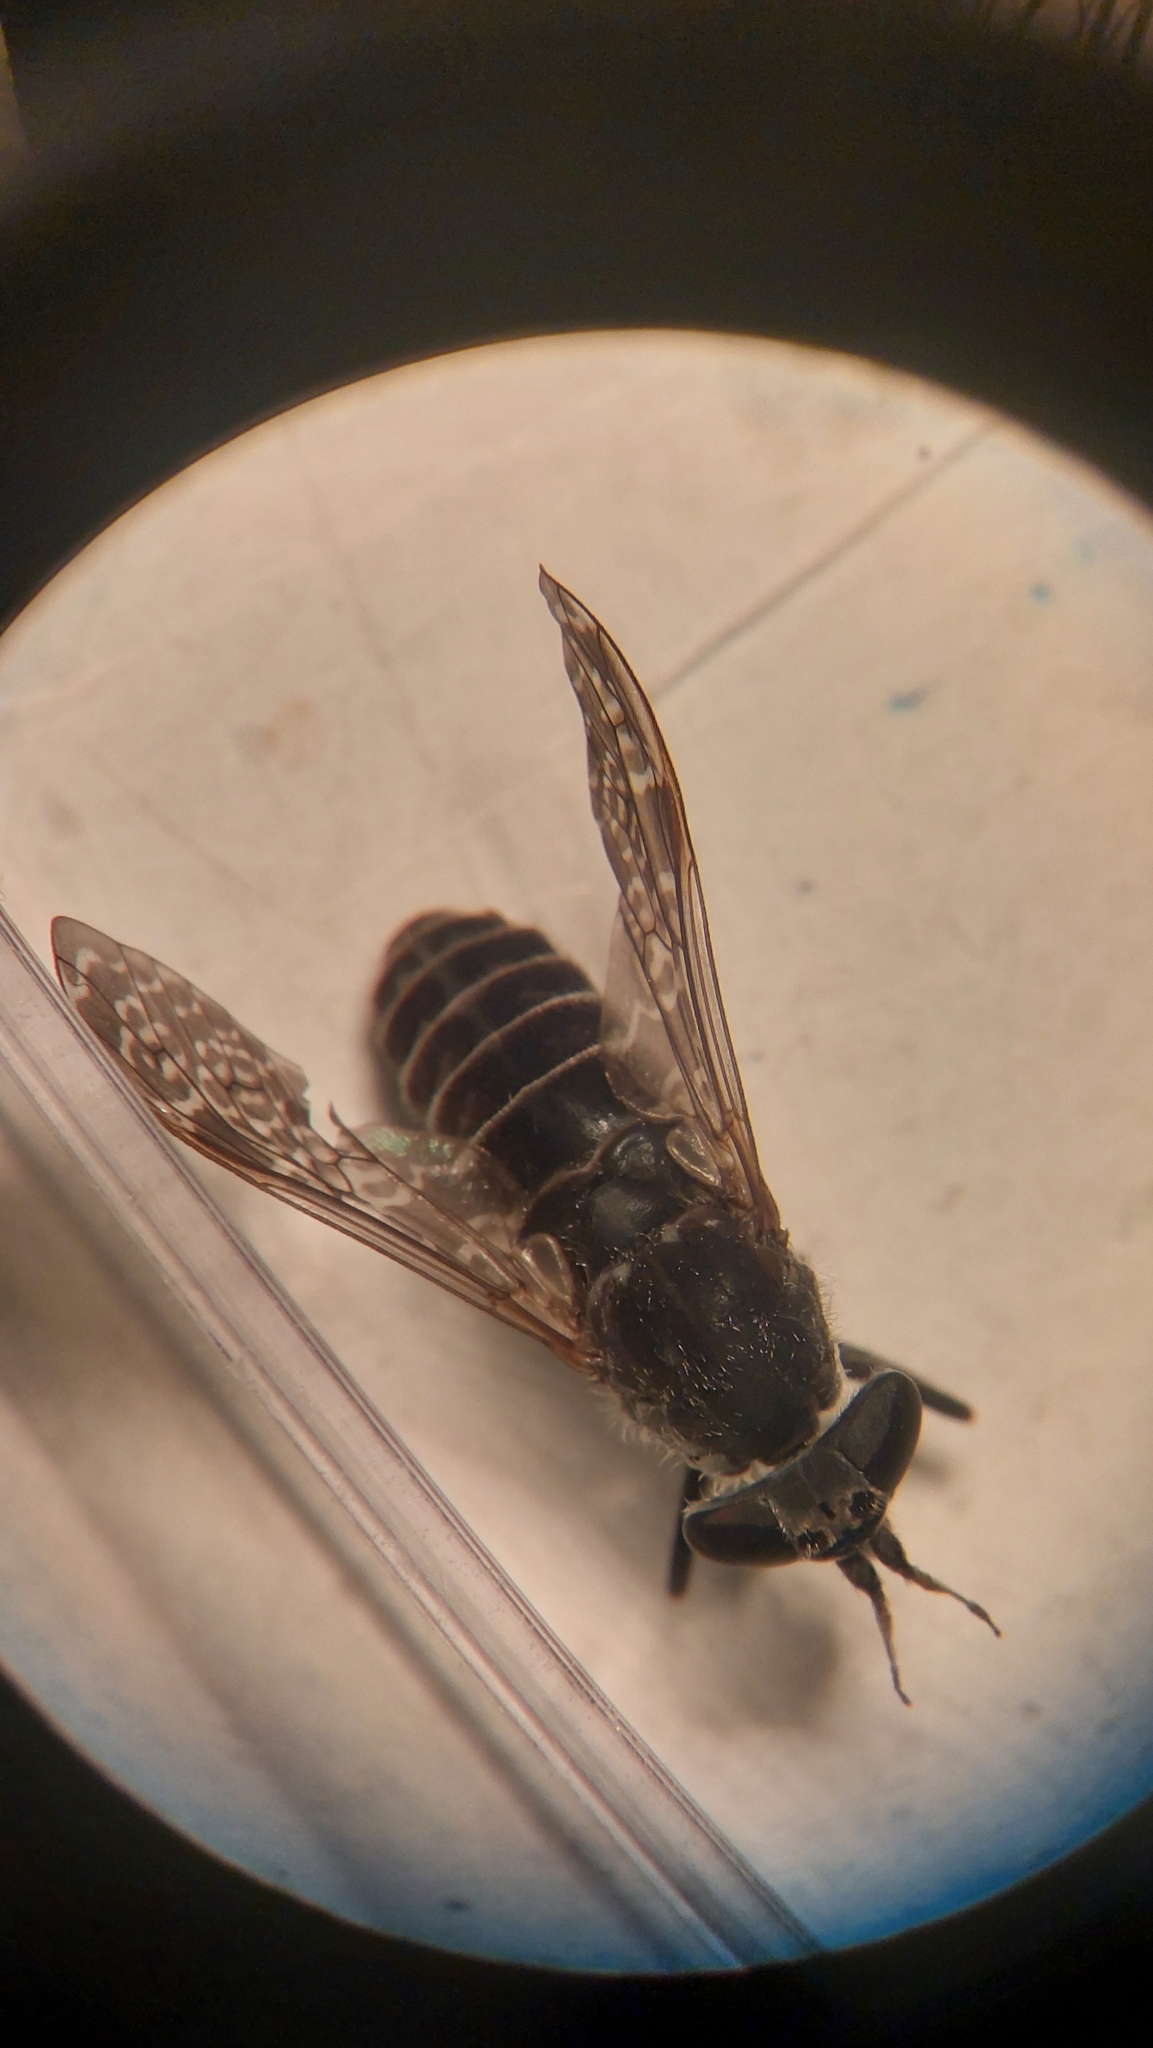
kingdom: Animalia
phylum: Arthropoda
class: Insecta
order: Diptera
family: Tabanidae
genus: Haematopota
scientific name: Haematopota scutellata
